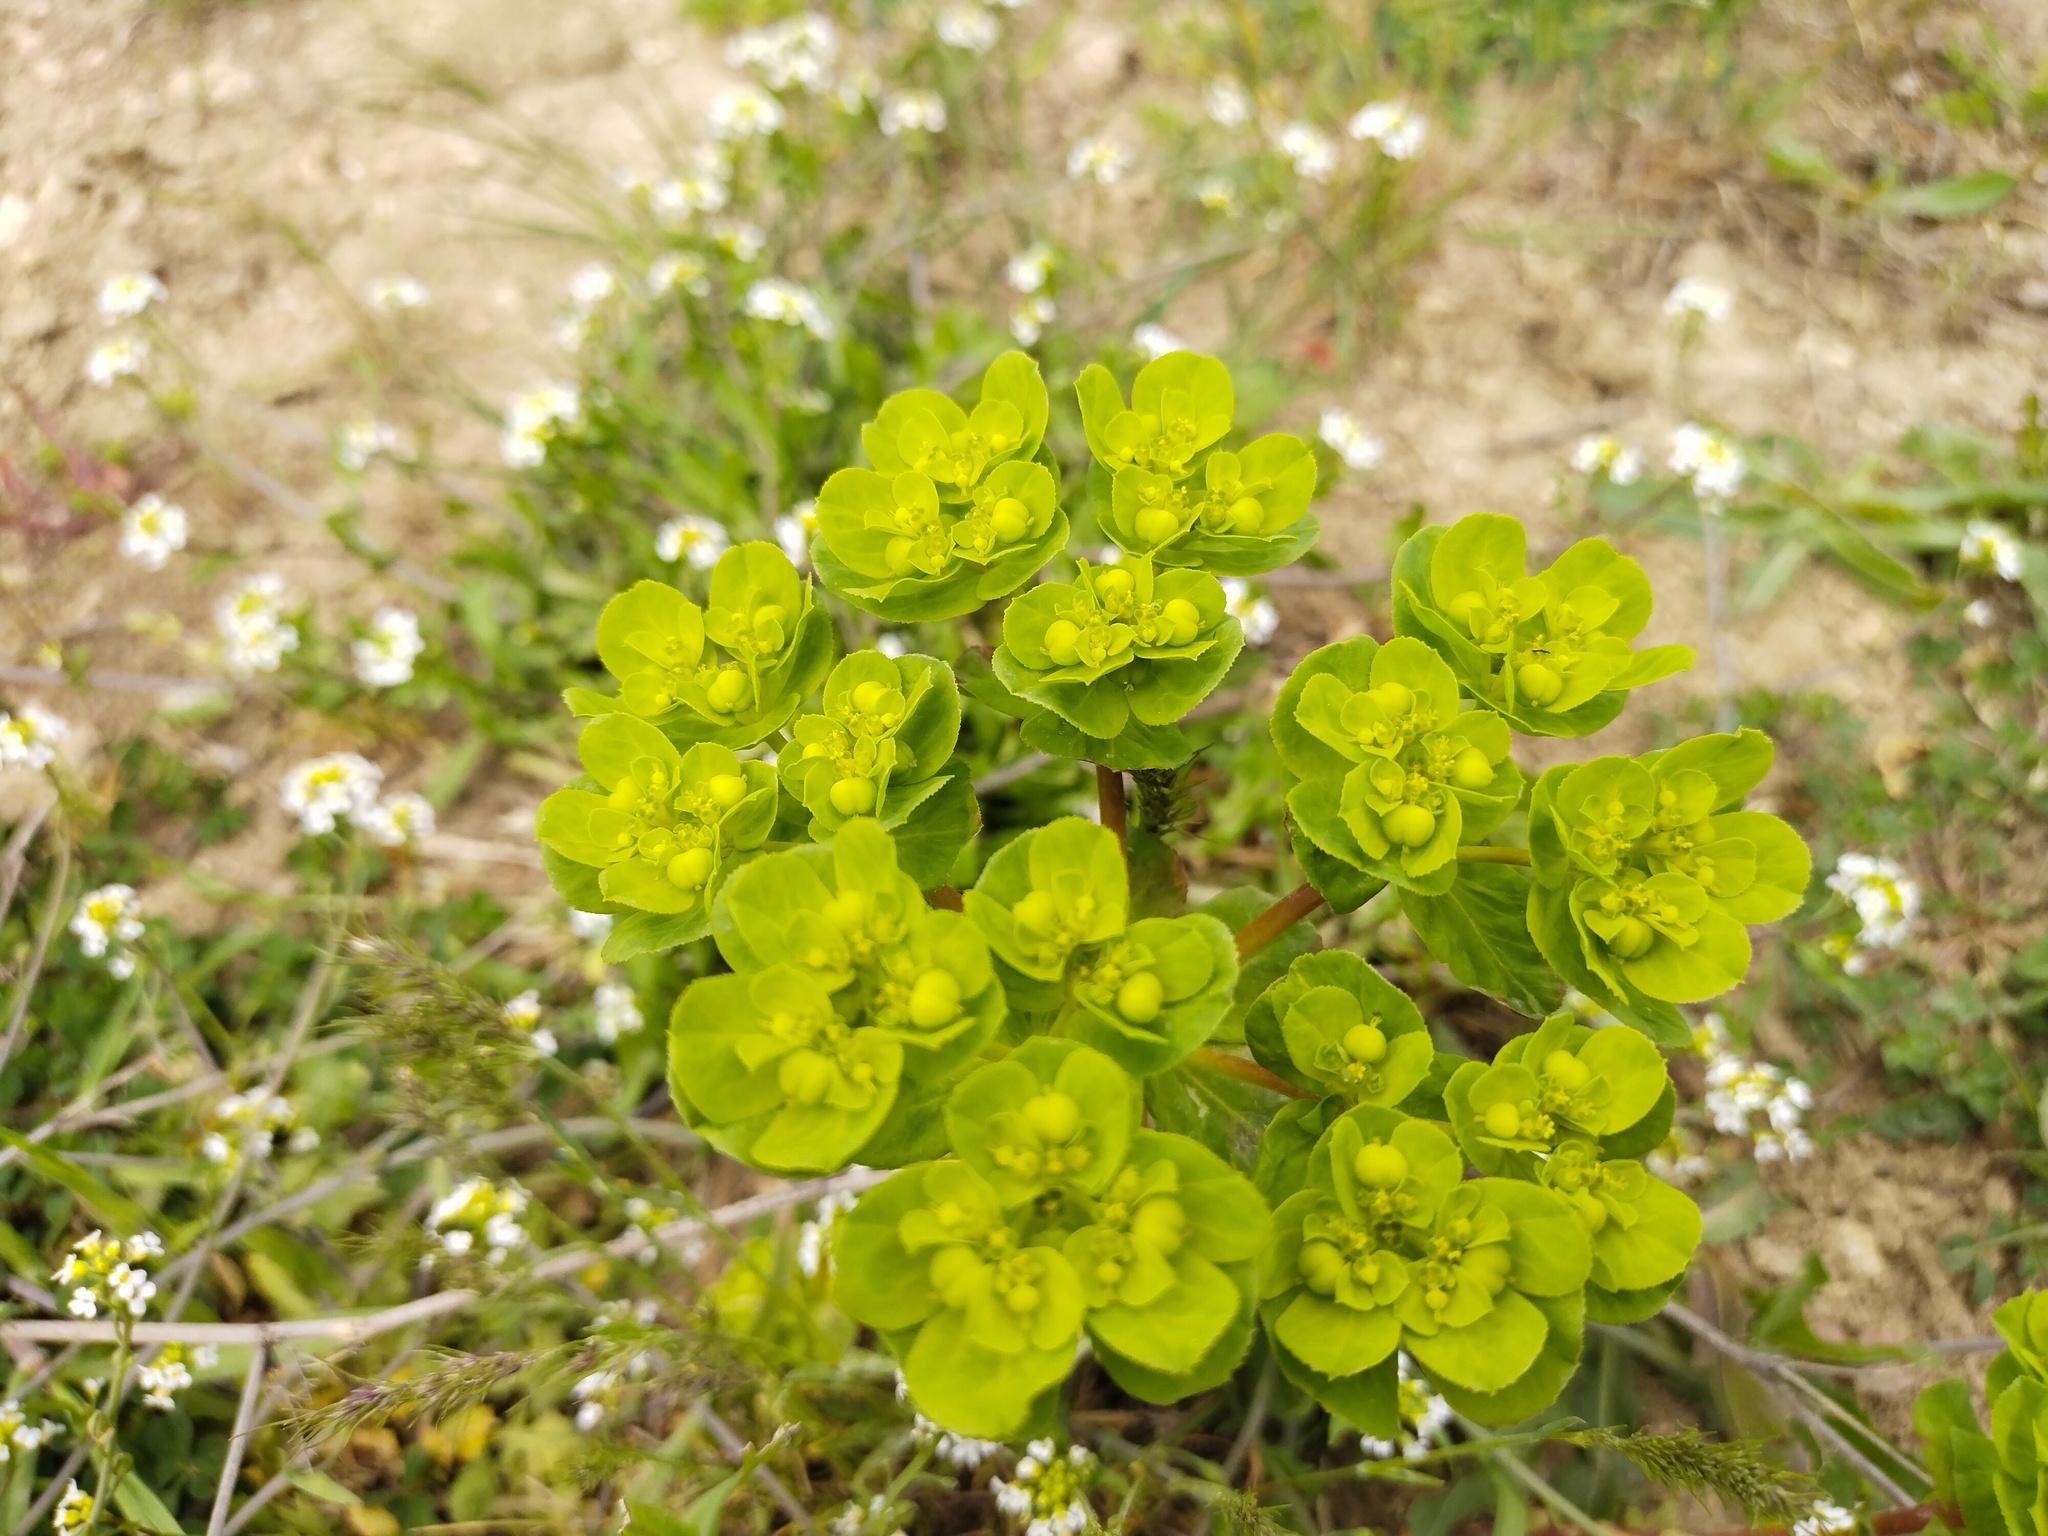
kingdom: Plantae
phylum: Tracheophyta
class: Magnoliopsida
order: Malpighiales
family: Euphorbiaceae
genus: Euphorbia
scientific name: Euphorbia helioscopia
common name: Sun spurge
